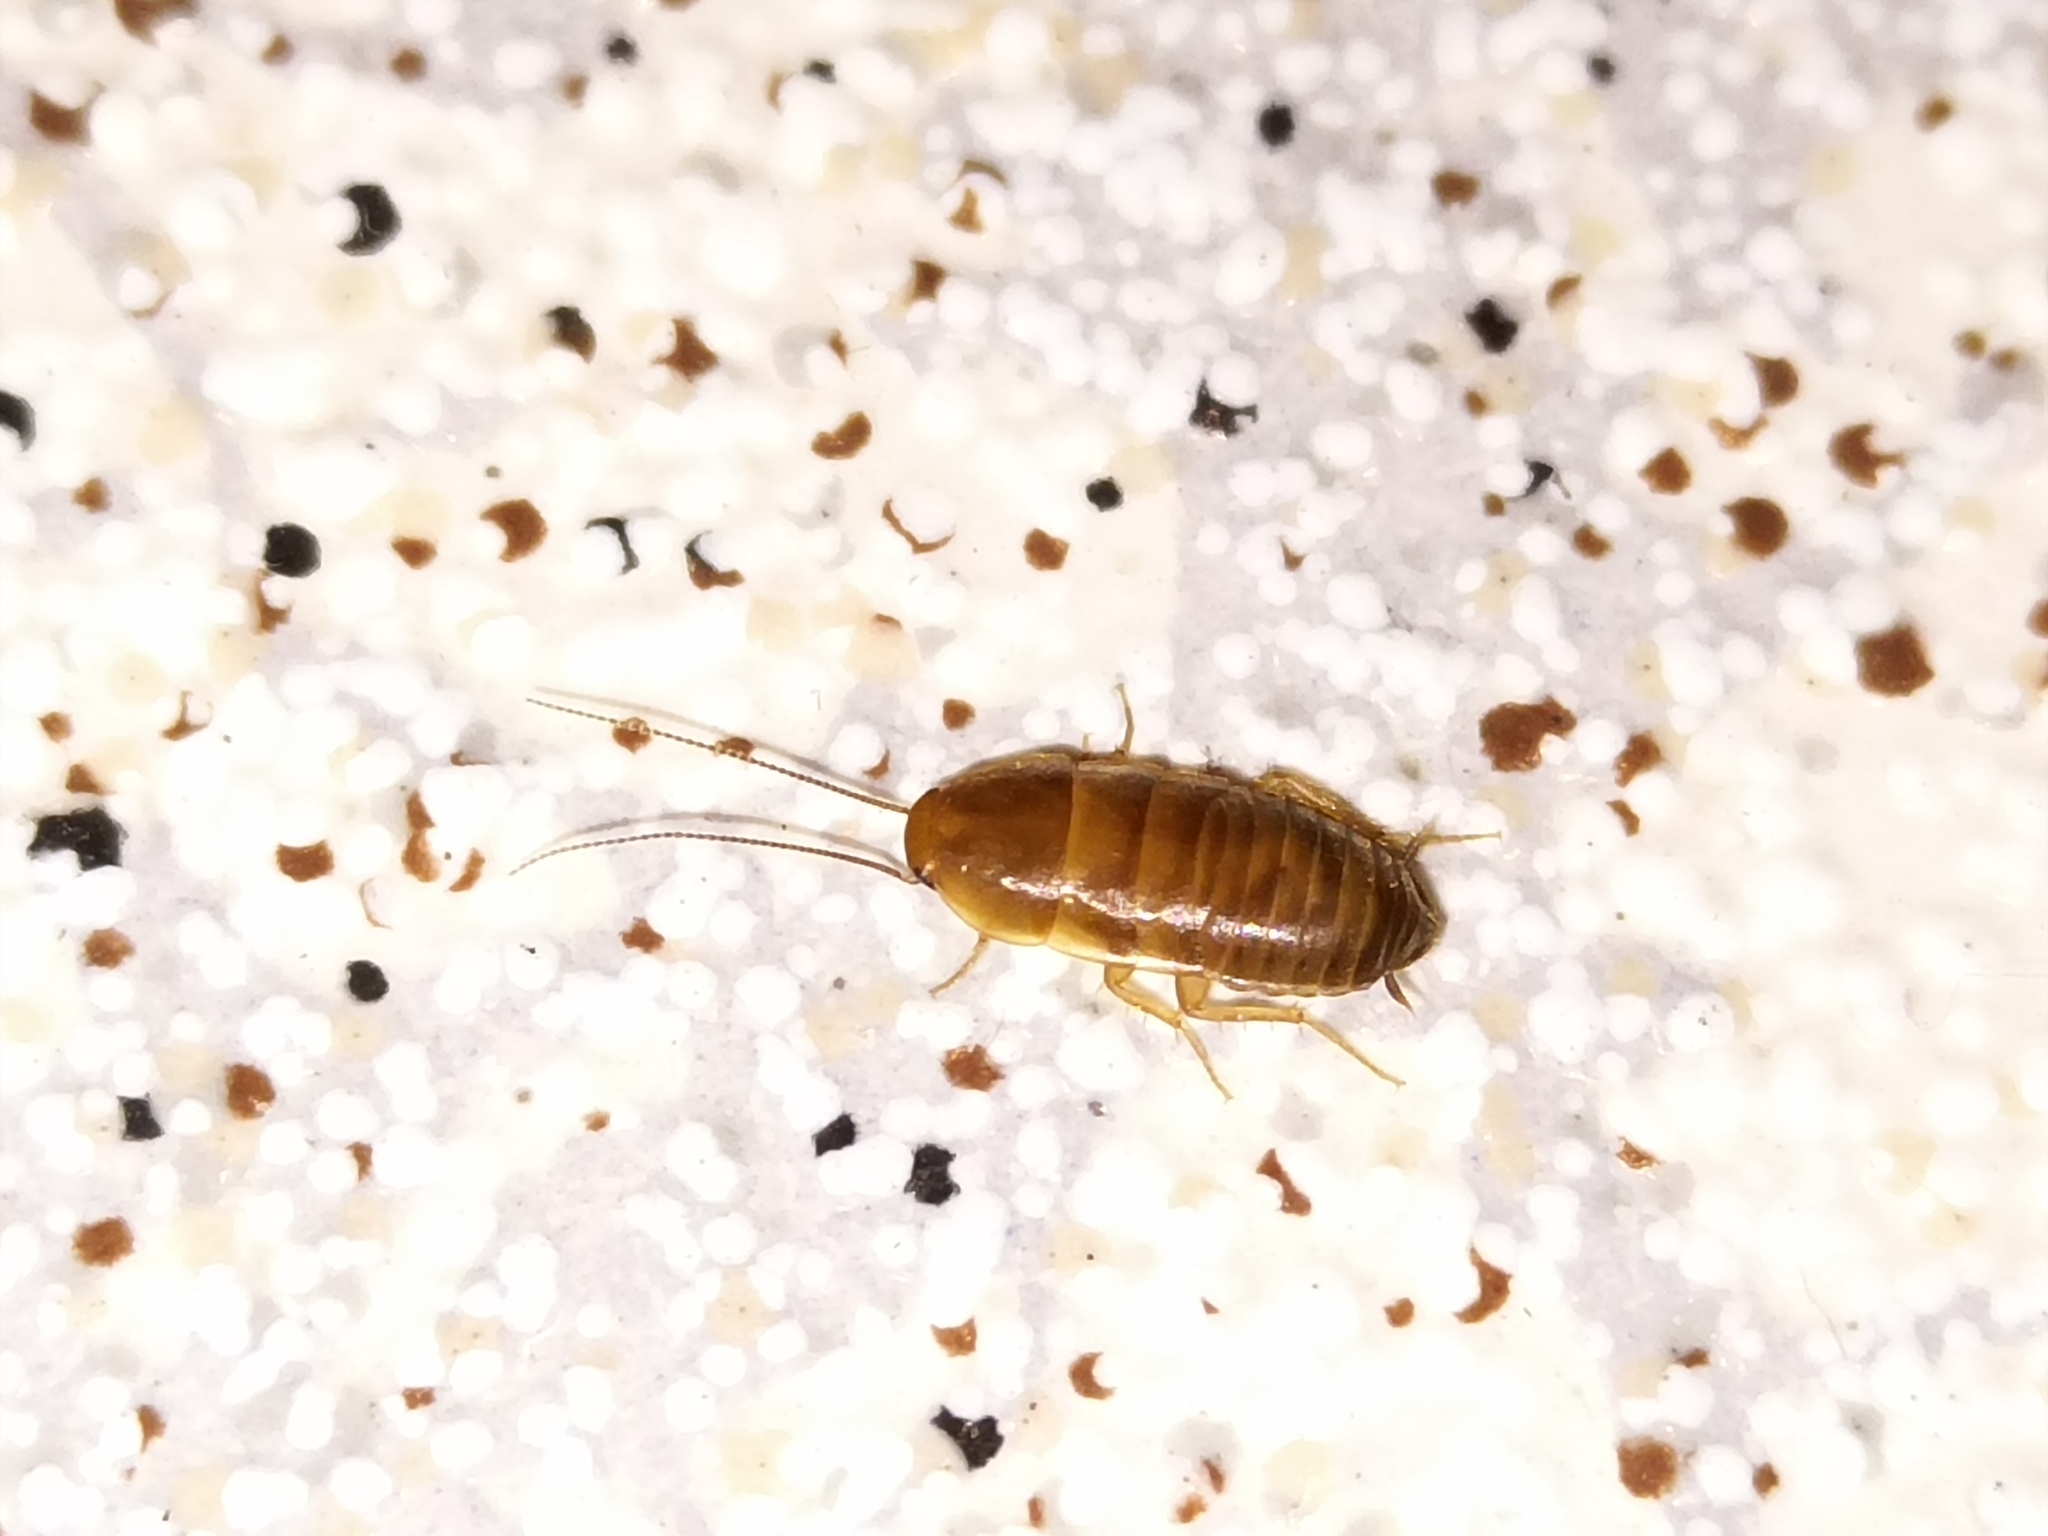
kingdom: Animalia
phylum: Arthropoda
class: Insecta
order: Blattodea
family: Corydiidae
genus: Myrmecoblatta
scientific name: Myrmecoblatta hebardi
